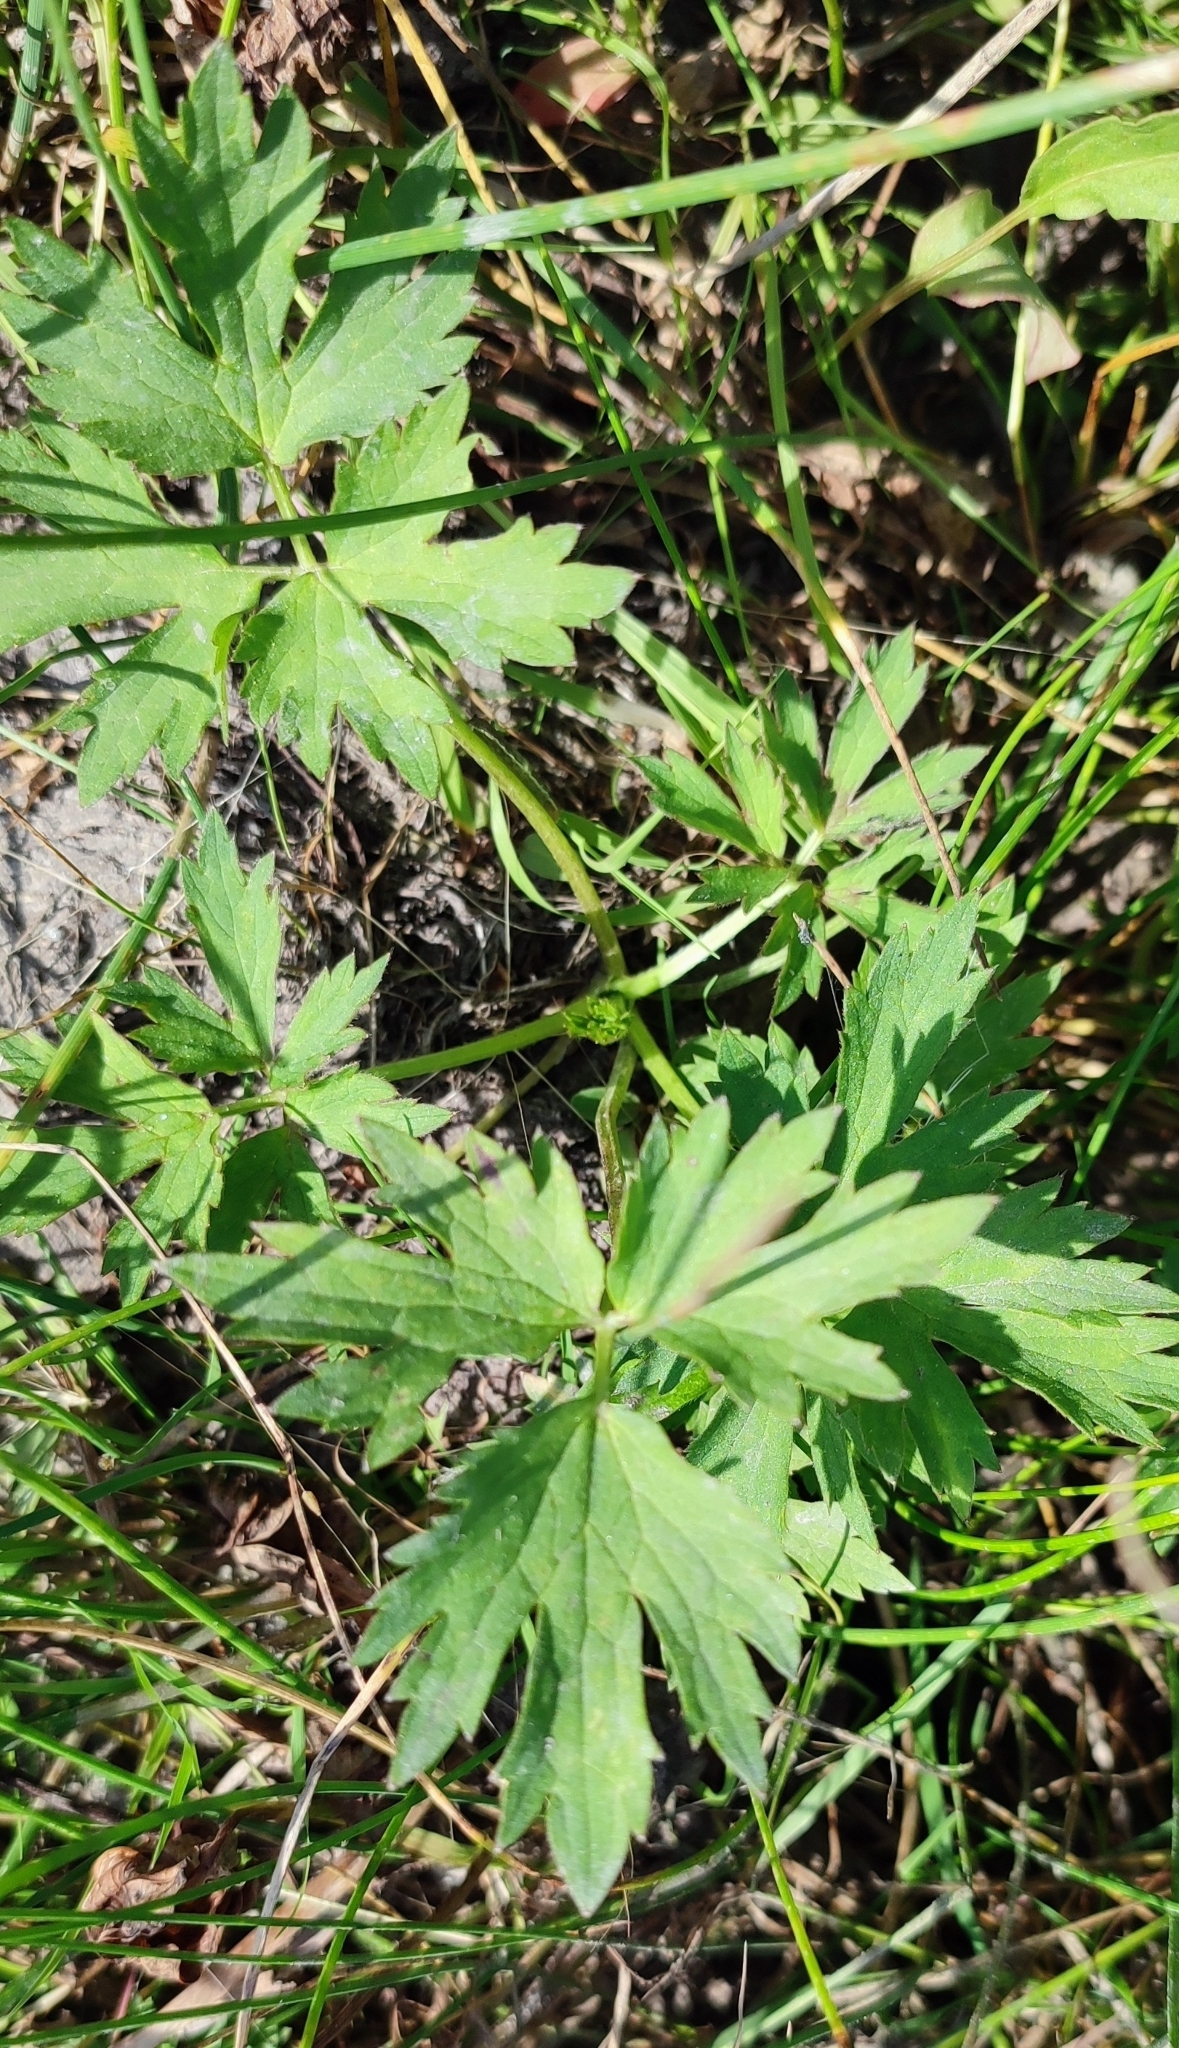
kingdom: Plantae
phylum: Tracheophyta
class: Magnoliopsida
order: Ranunculales
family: Ranunculaceae
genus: Ranunculus
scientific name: Ranunculus repens
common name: Creeping buttercup
